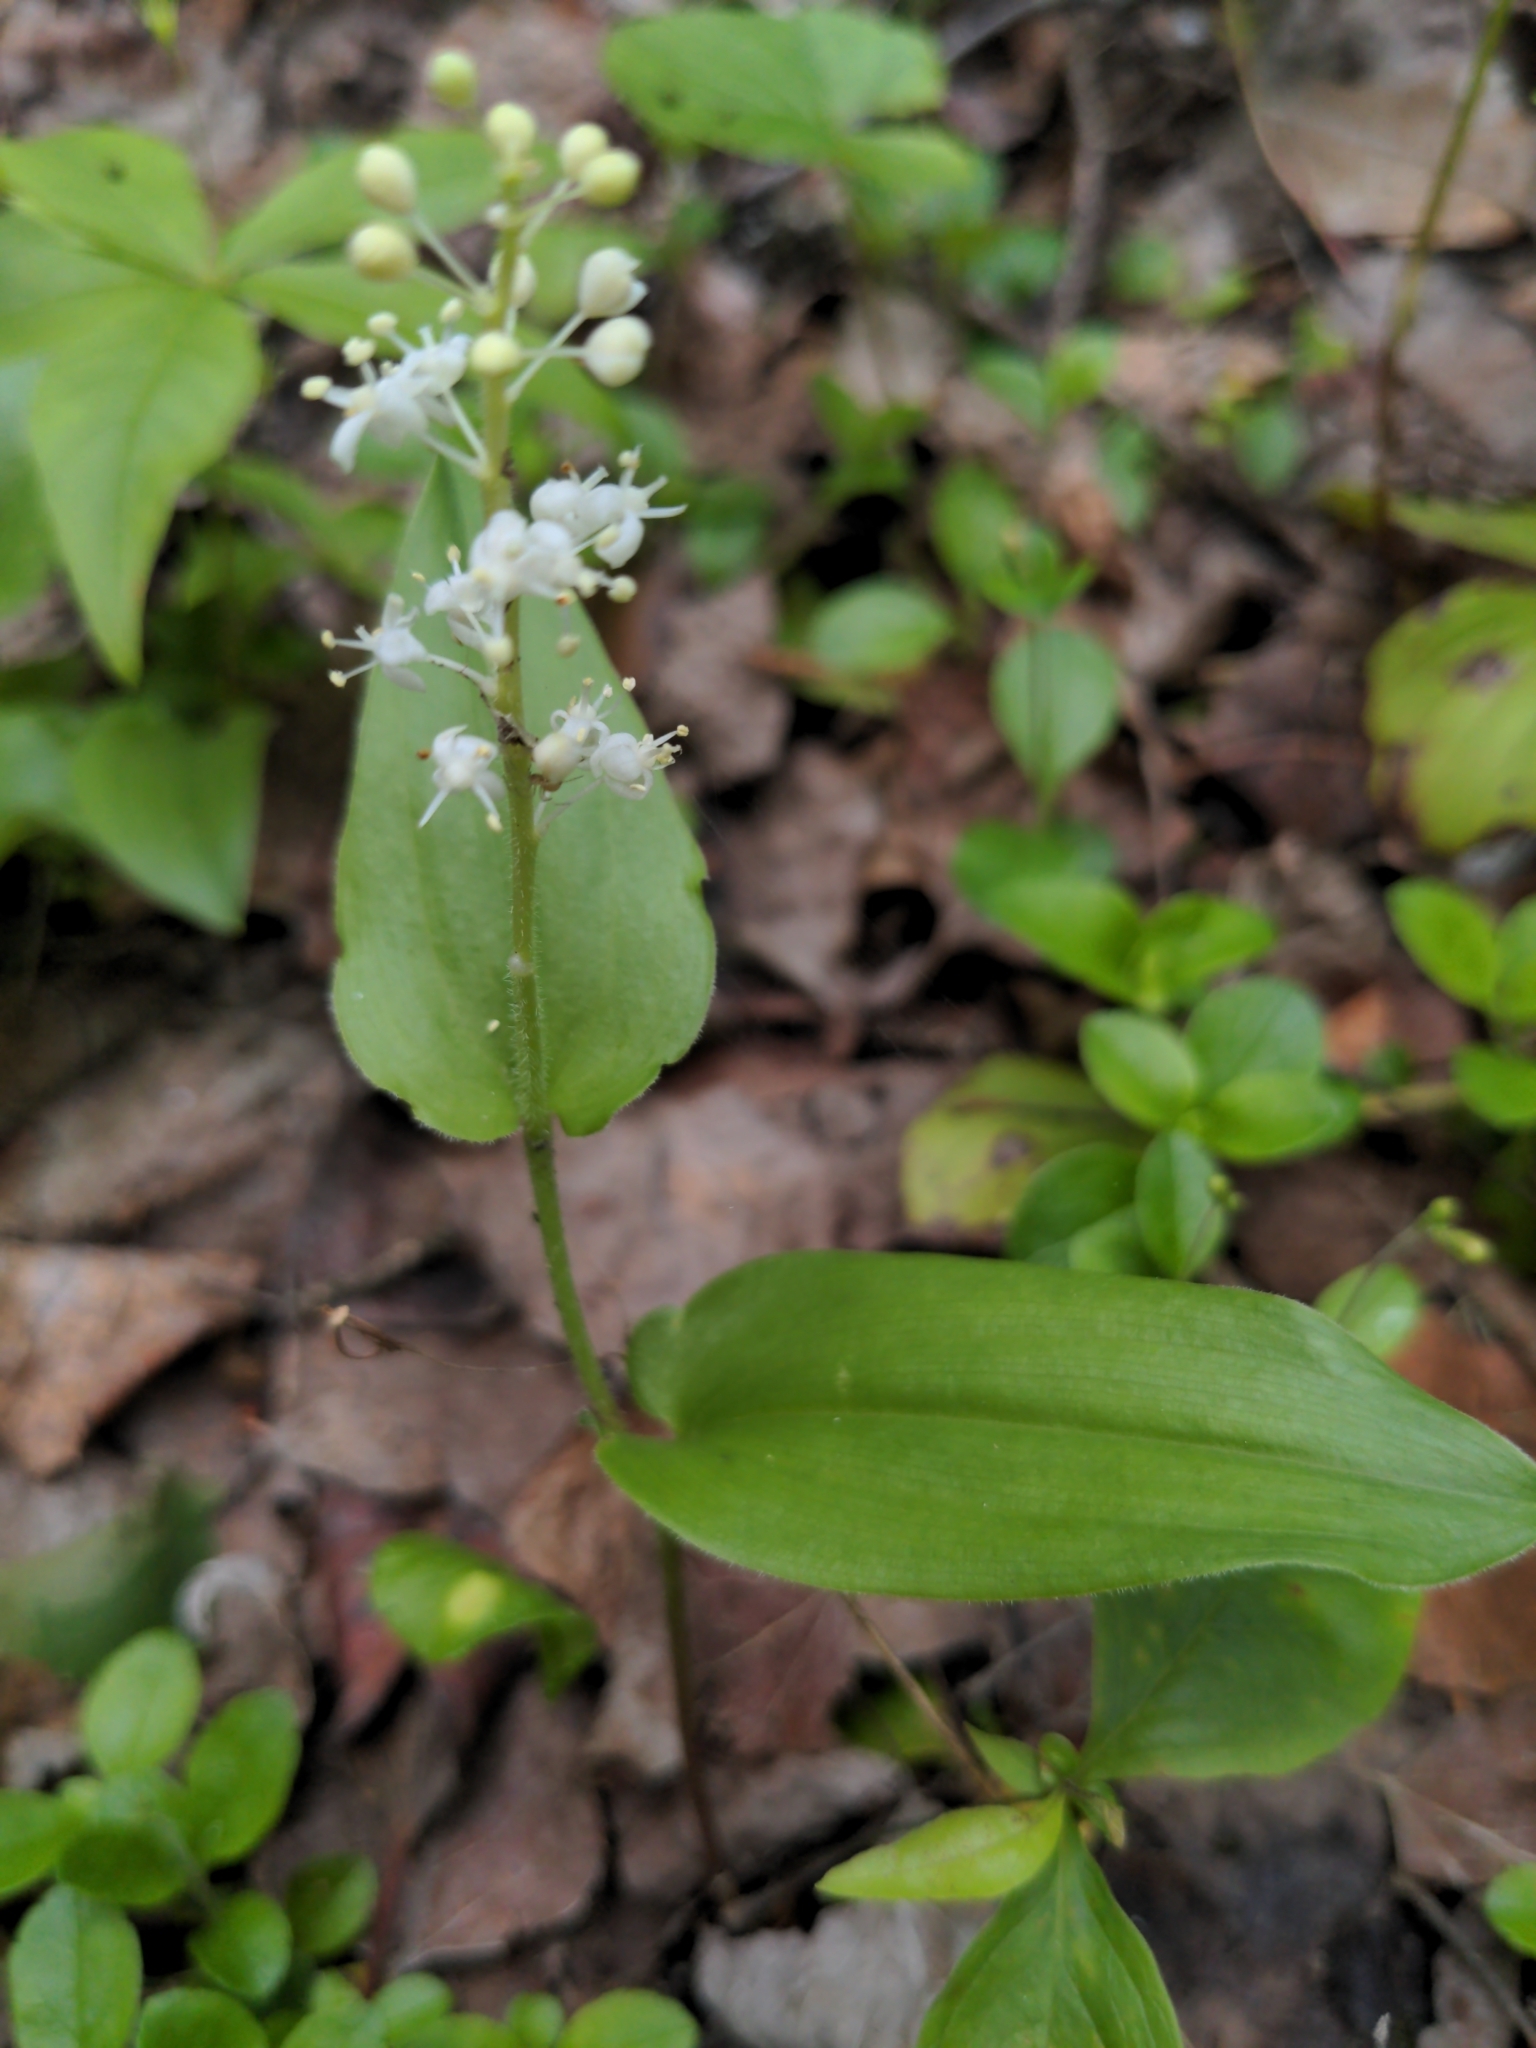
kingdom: Plantae
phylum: Tracheophyta
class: Liliopsida
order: Asparagales
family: Asparagaceae
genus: Maianthemum
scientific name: Maianthemum canadense
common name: False lily-of-the-valley
